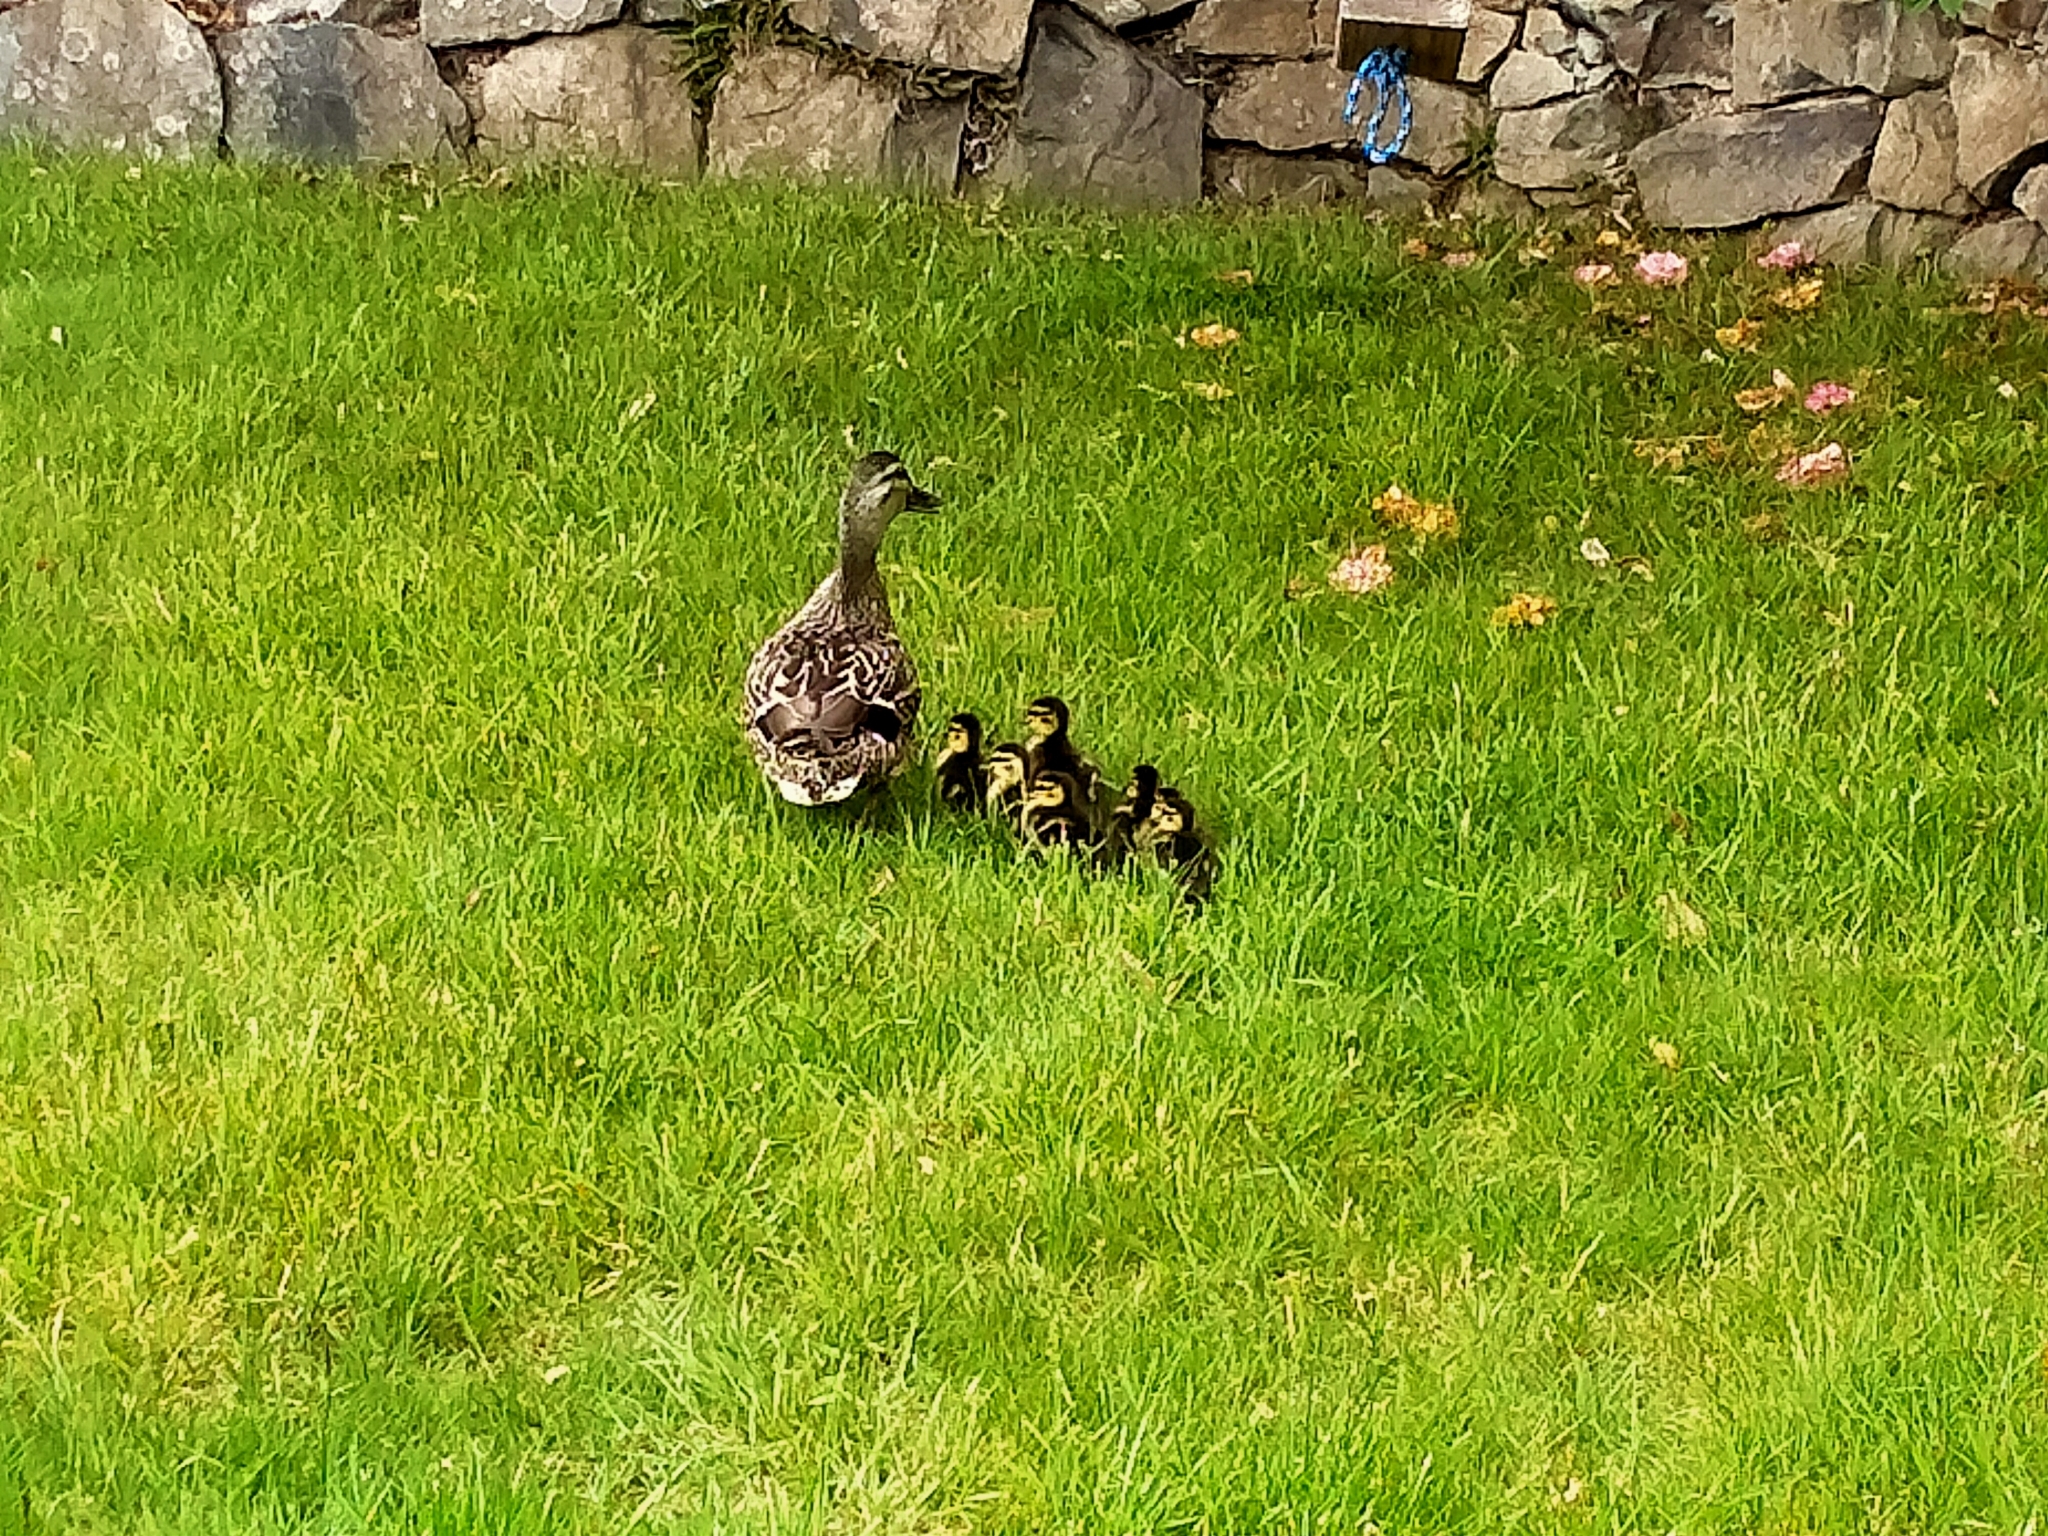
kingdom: Animalia
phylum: Chordata
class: Aves
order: Anseriformes
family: Anatidae
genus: Anas
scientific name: Anas
